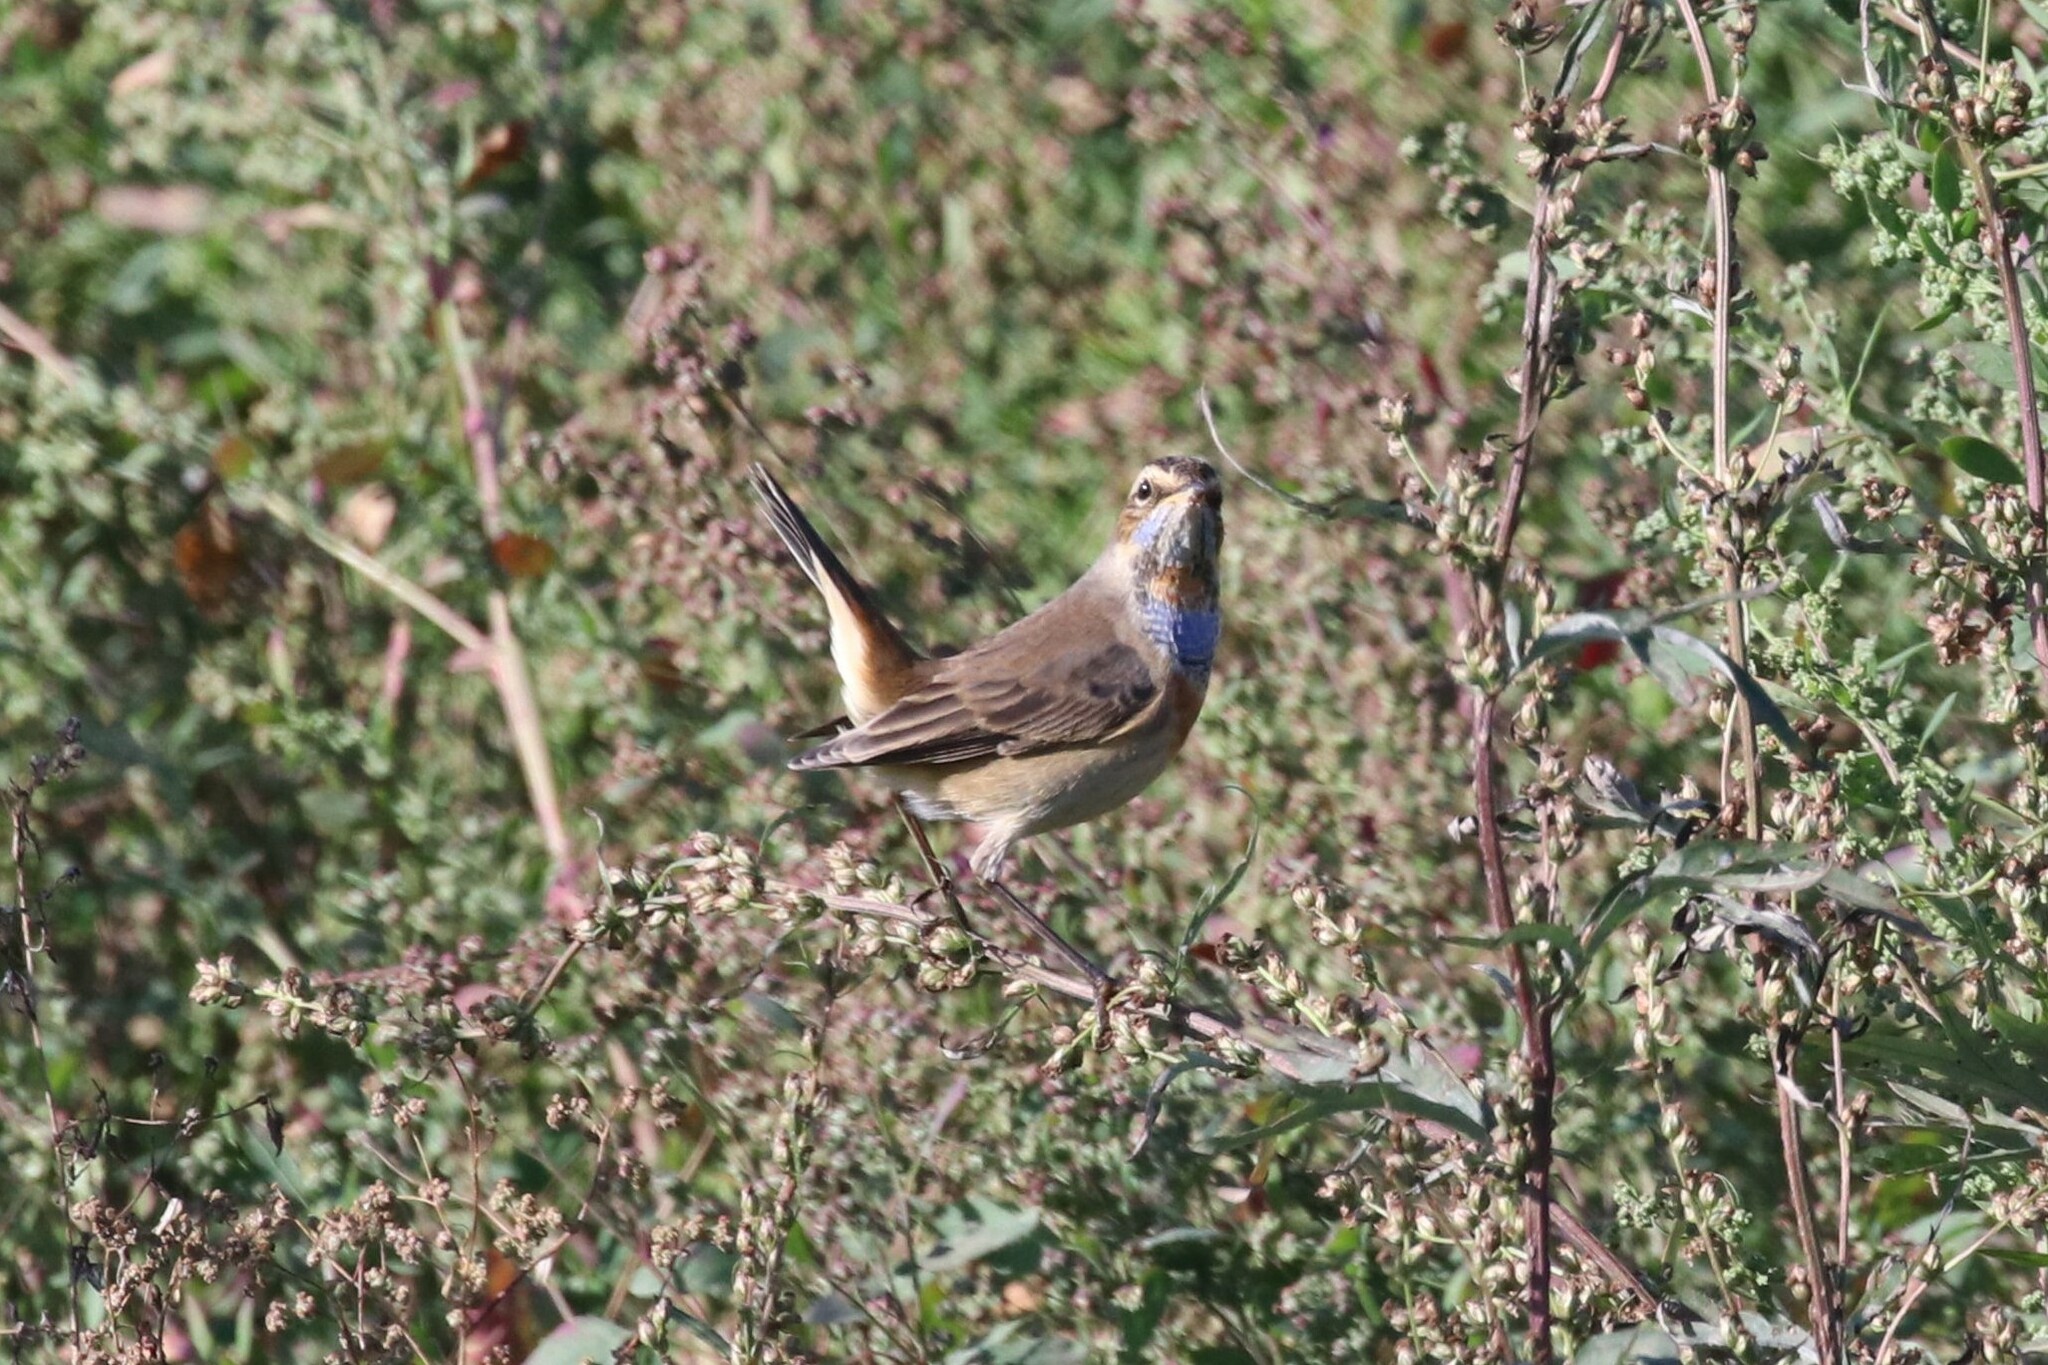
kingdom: Animalia
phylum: Chordata
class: Aves
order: Passeriformes
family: Muscicapidae
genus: Luscinia
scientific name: Luscinia svecica
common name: Bluethroat
